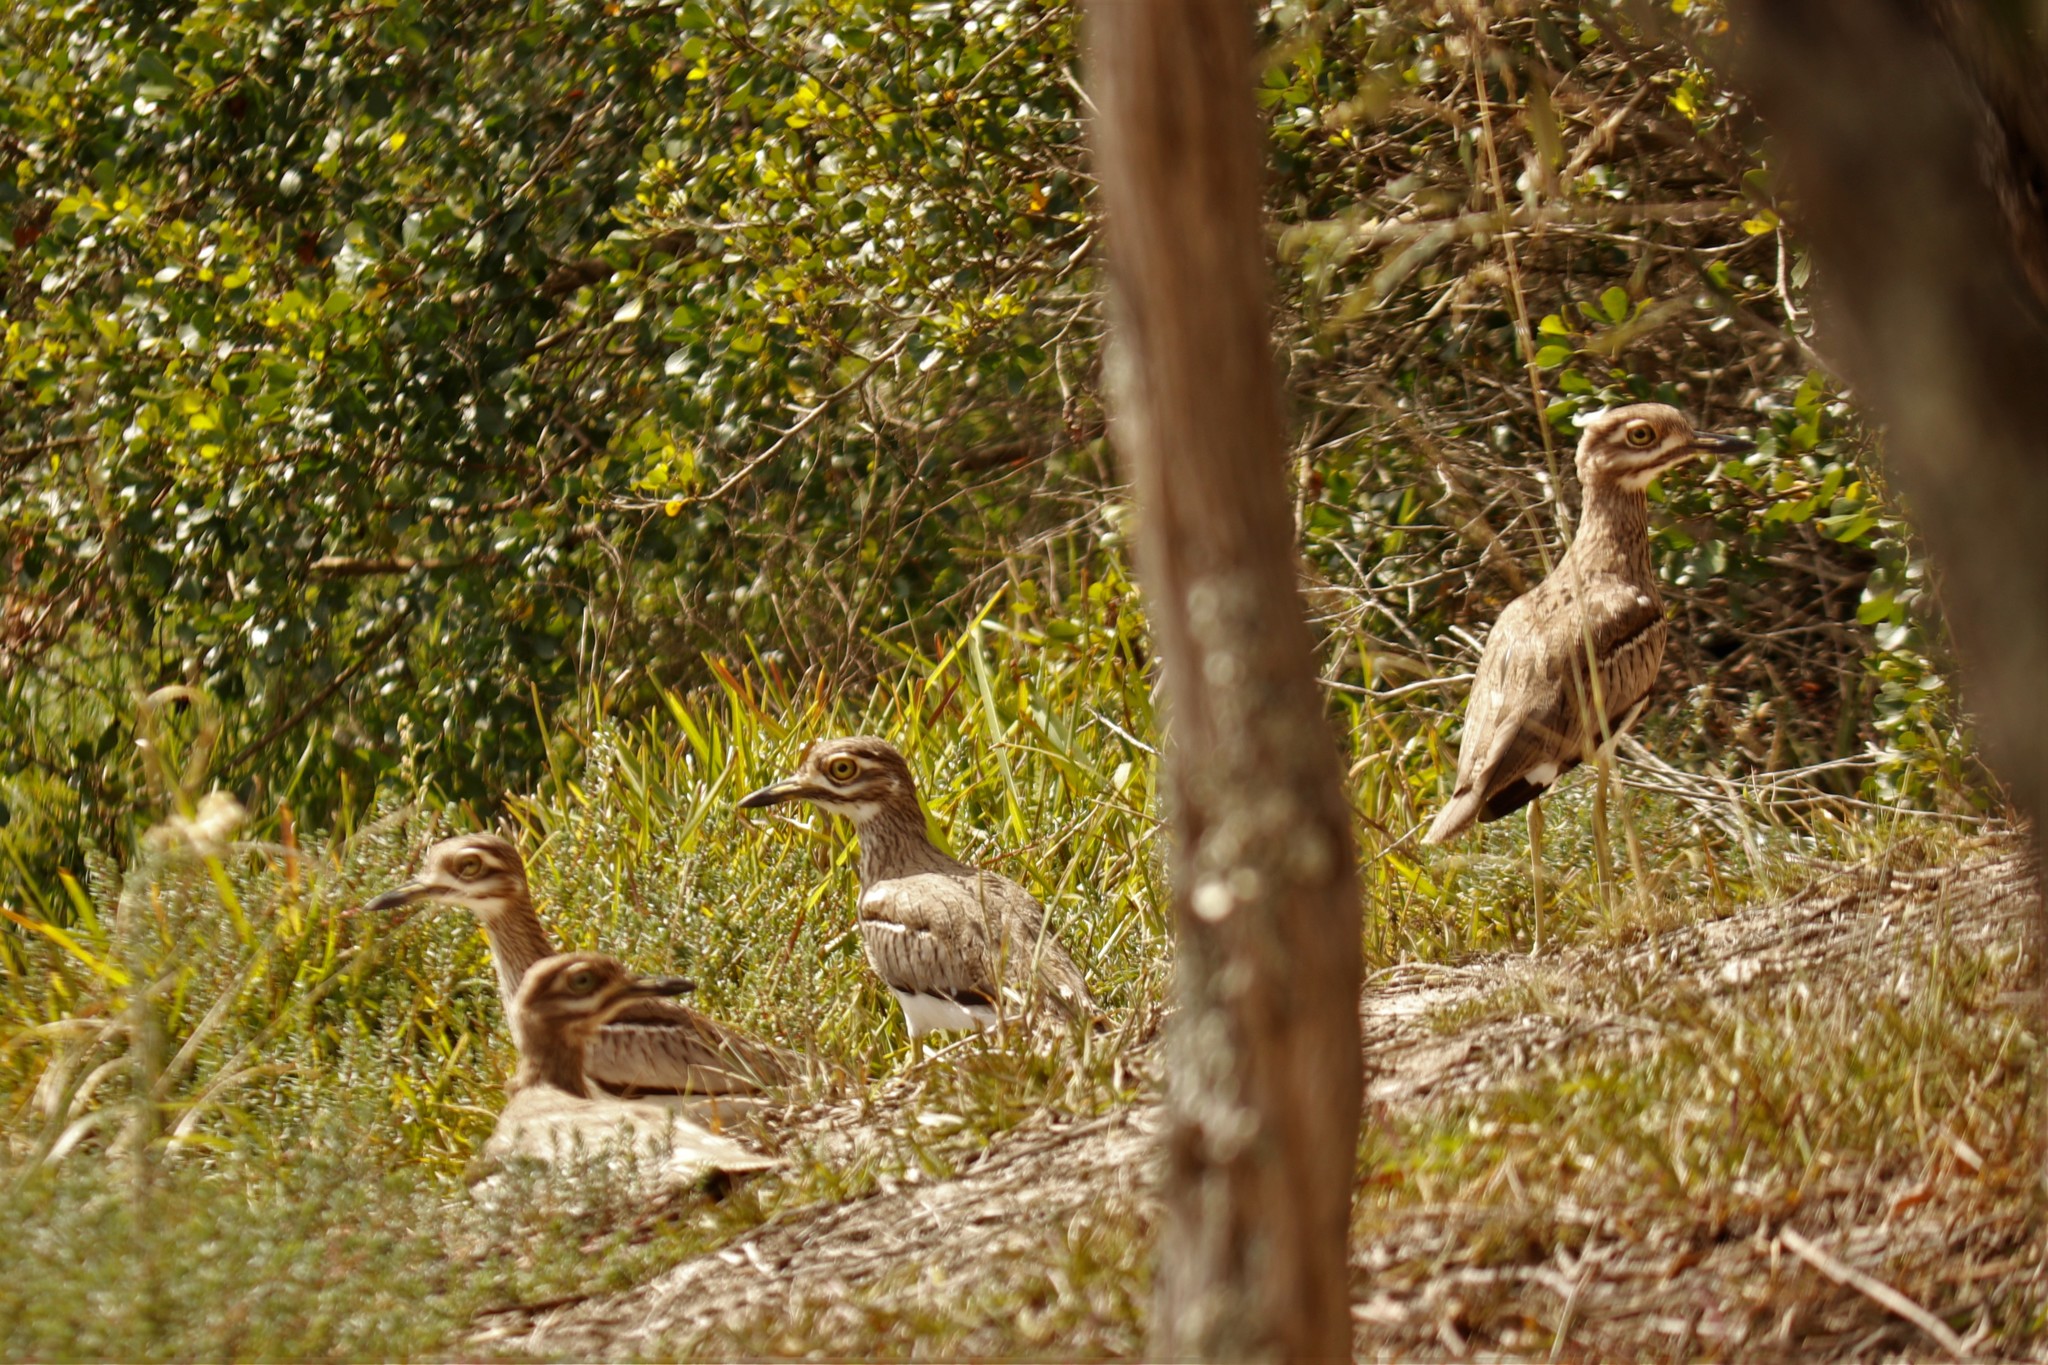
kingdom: Animalia
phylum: Chordata
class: Aves
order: Charadriiformes
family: Burhinidae
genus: Burhinus
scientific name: Burhinus vermiculatus
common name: Water thick-knee
